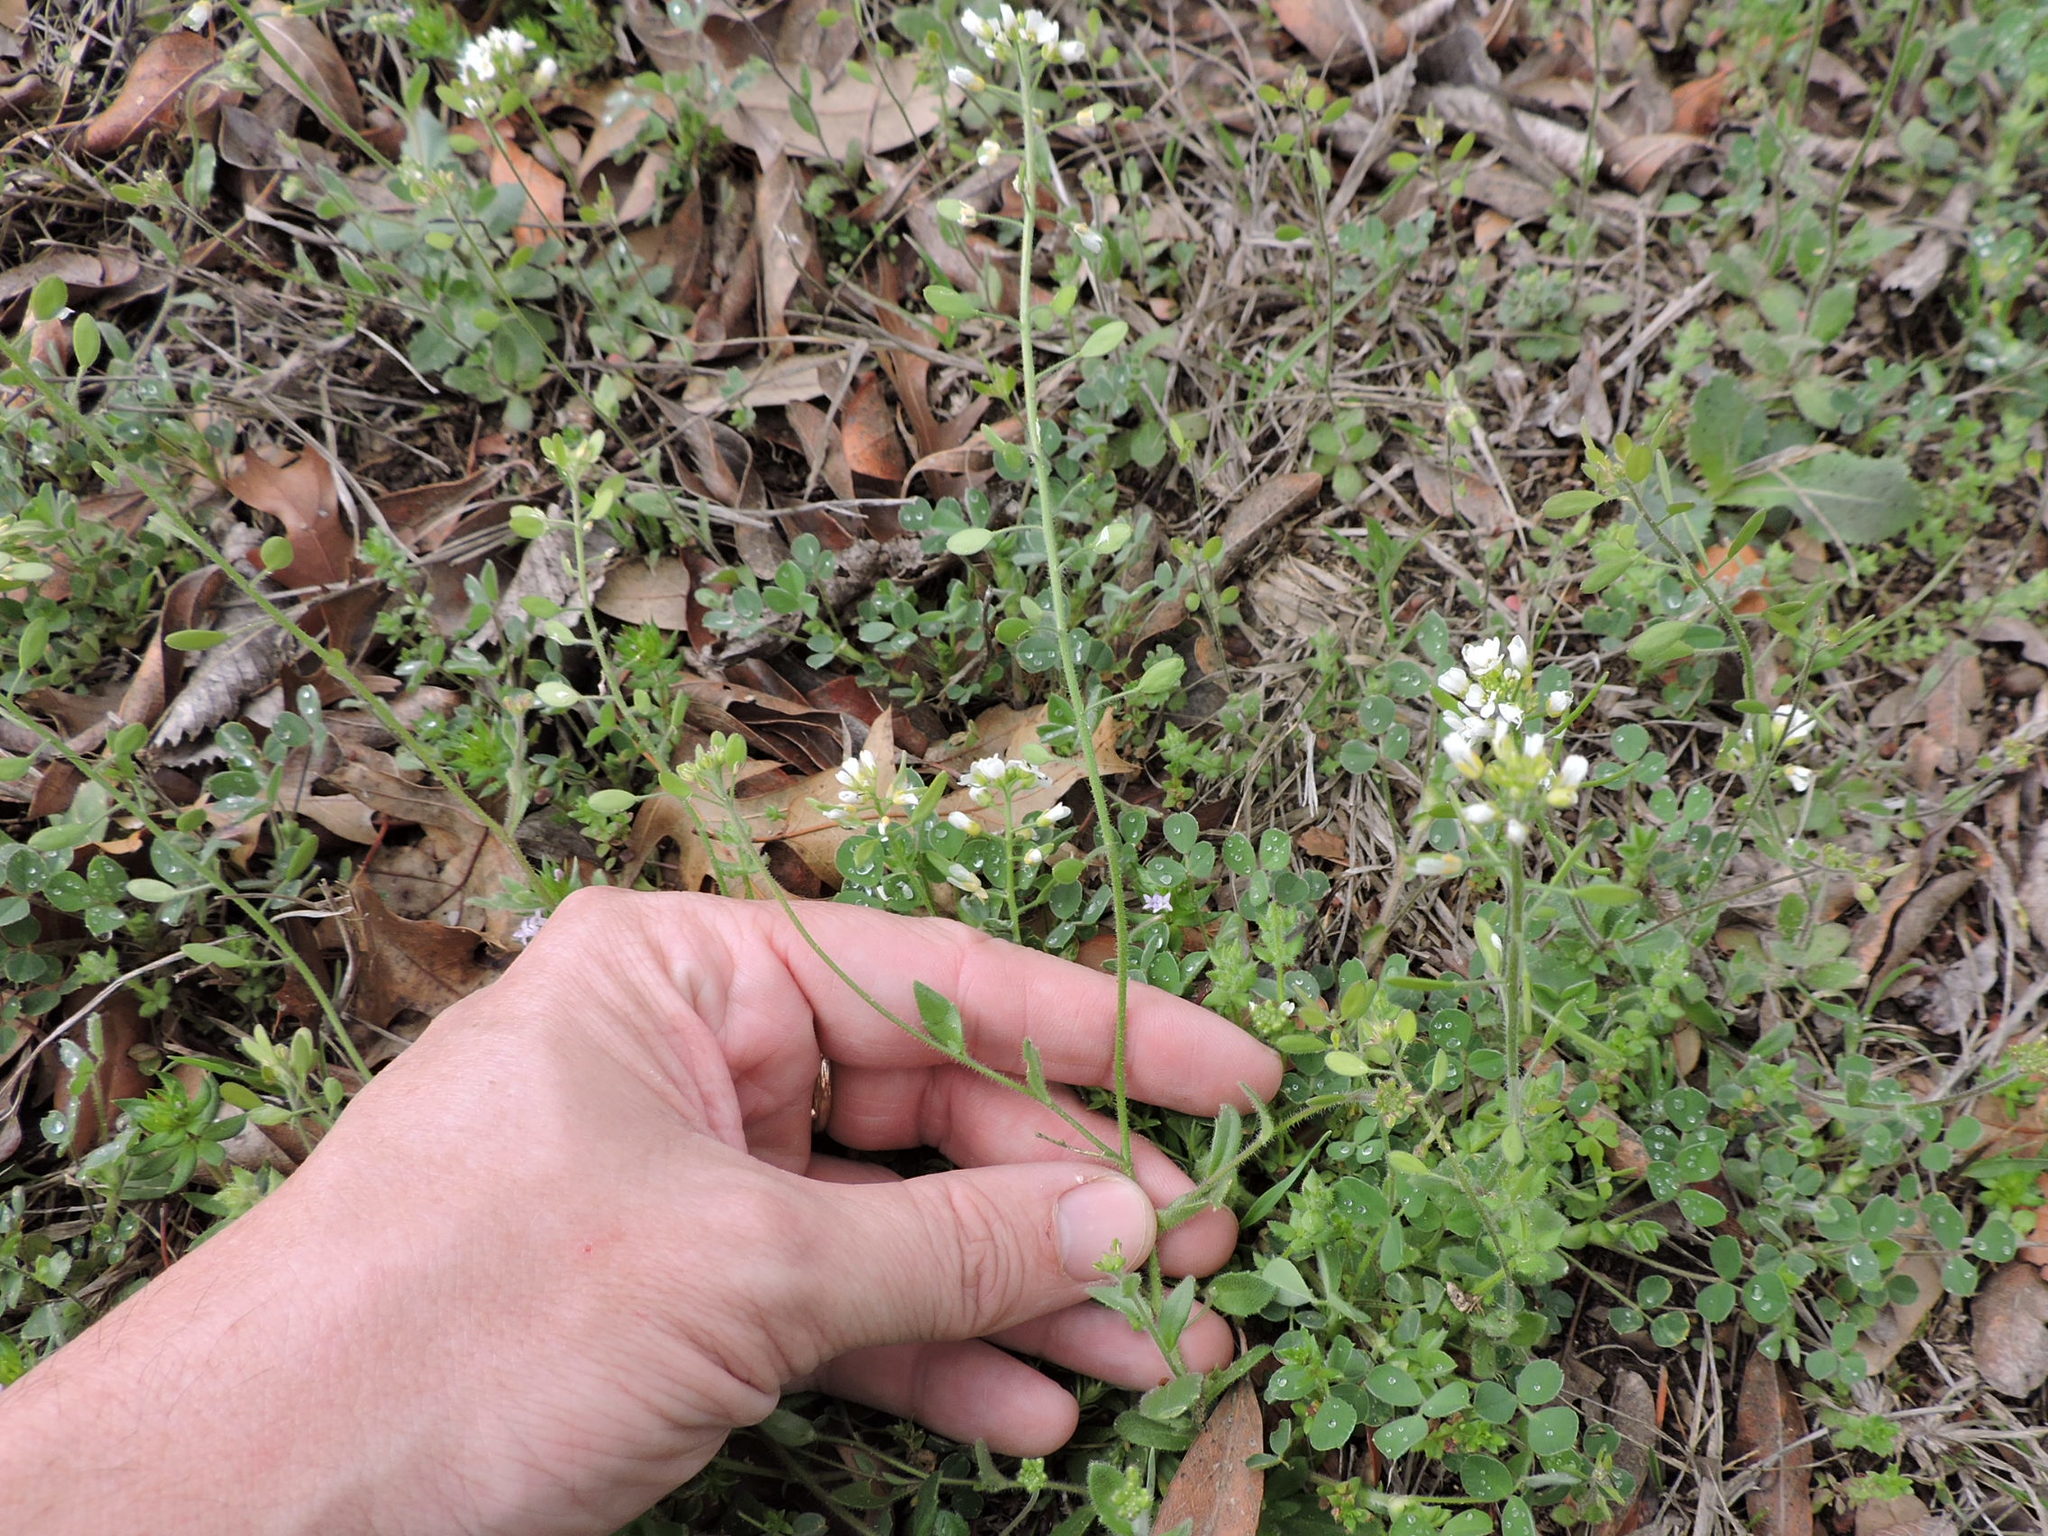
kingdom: Plantae
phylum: Tracheophyta
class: Magnoliopsida
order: Brassicales
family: Brassicaceae
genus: Tomostima
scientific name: Tomostima platycarpa
